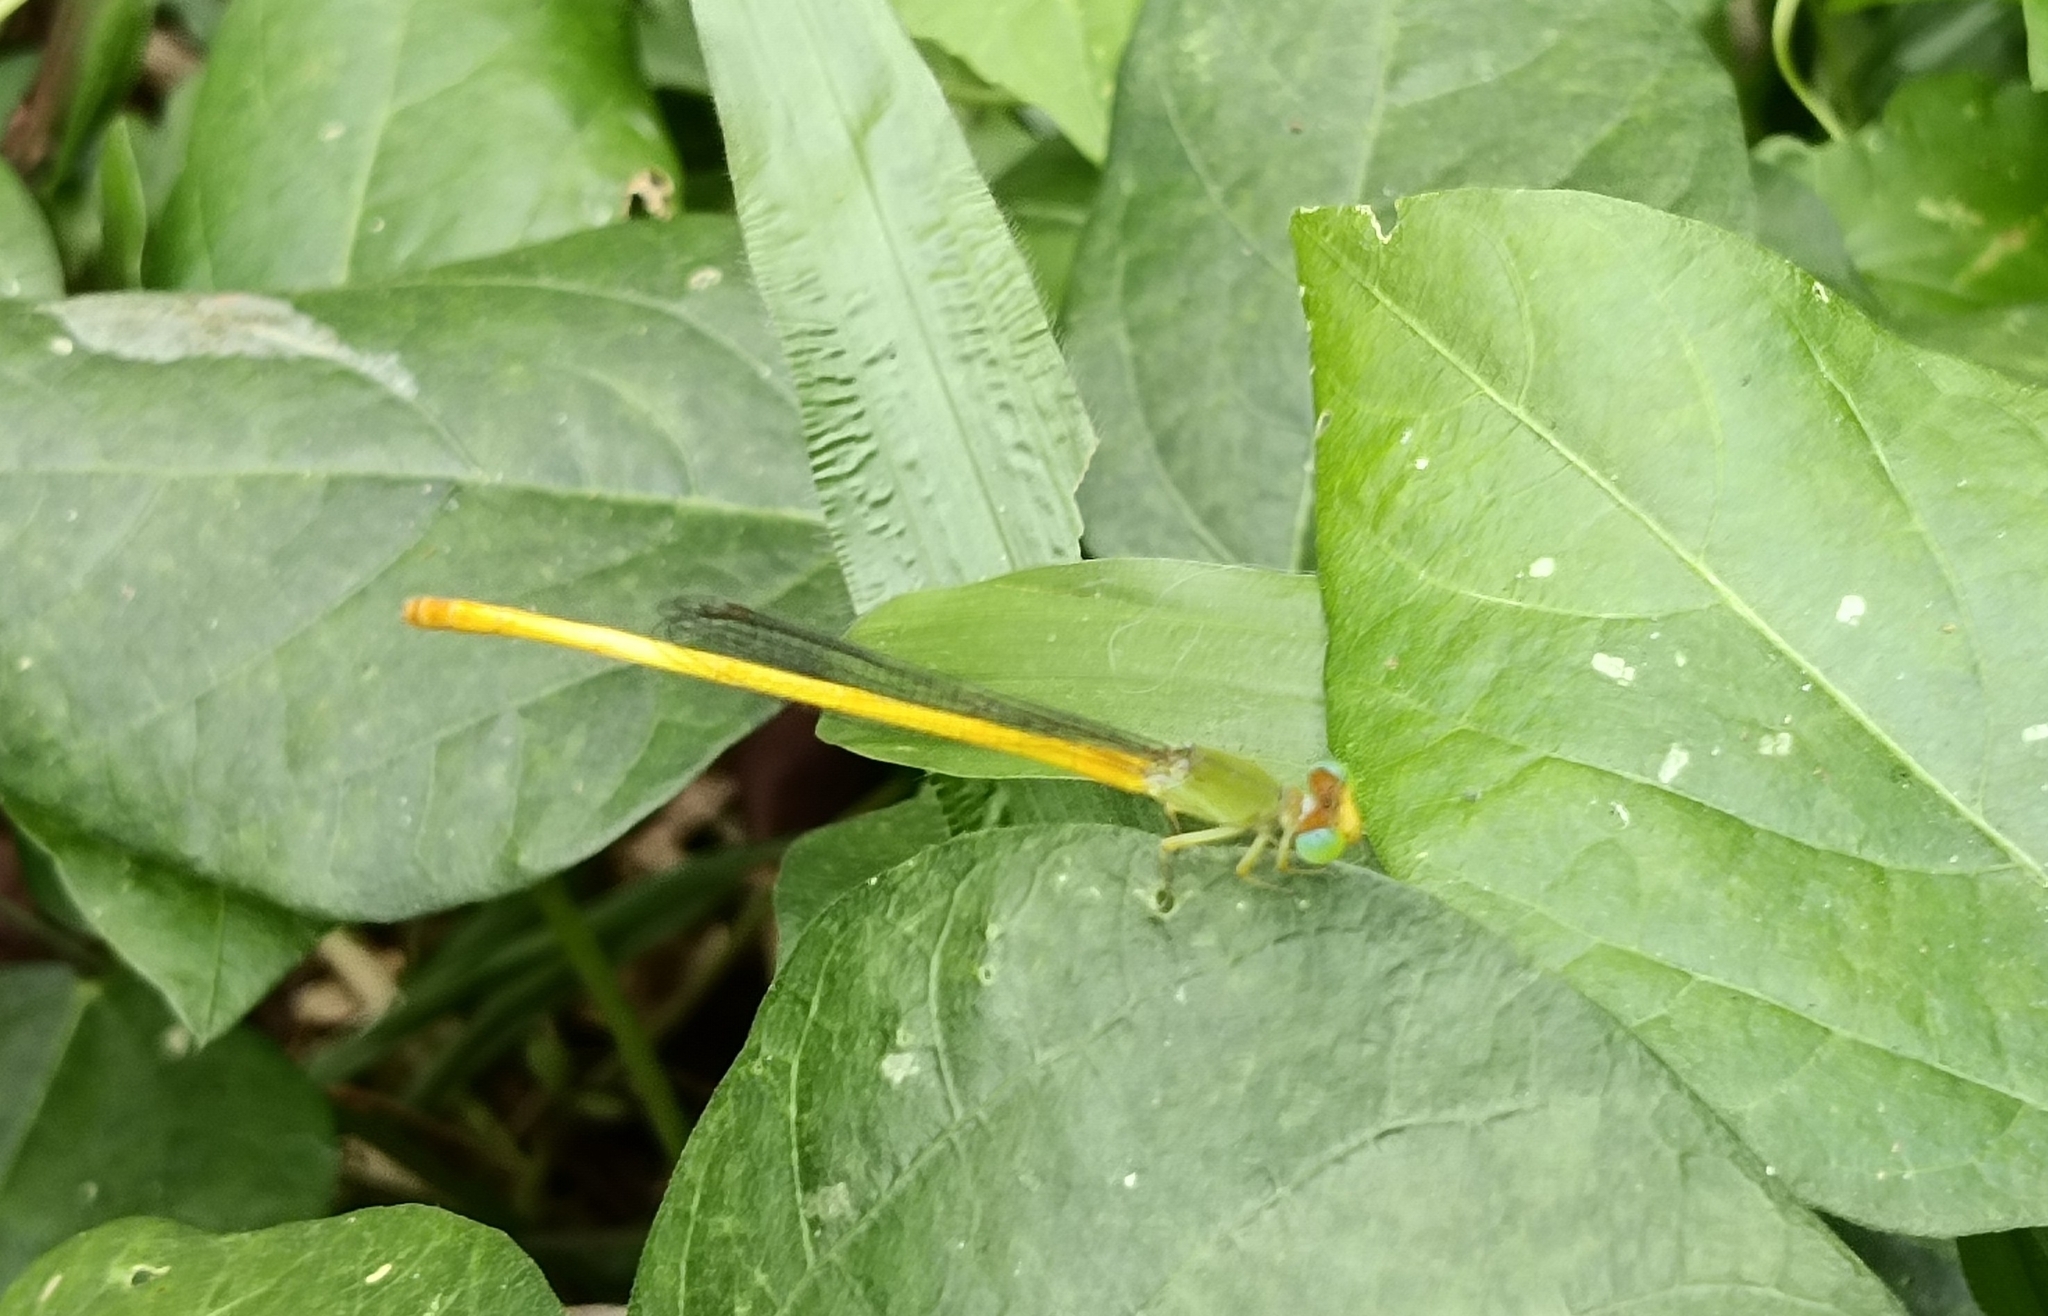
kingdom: Animalia
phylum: Arthropoda
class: Insecta
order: Odonata
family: Coenagrionidae
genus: Ceriagrion
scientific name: Ceriagrion coromandelianum
